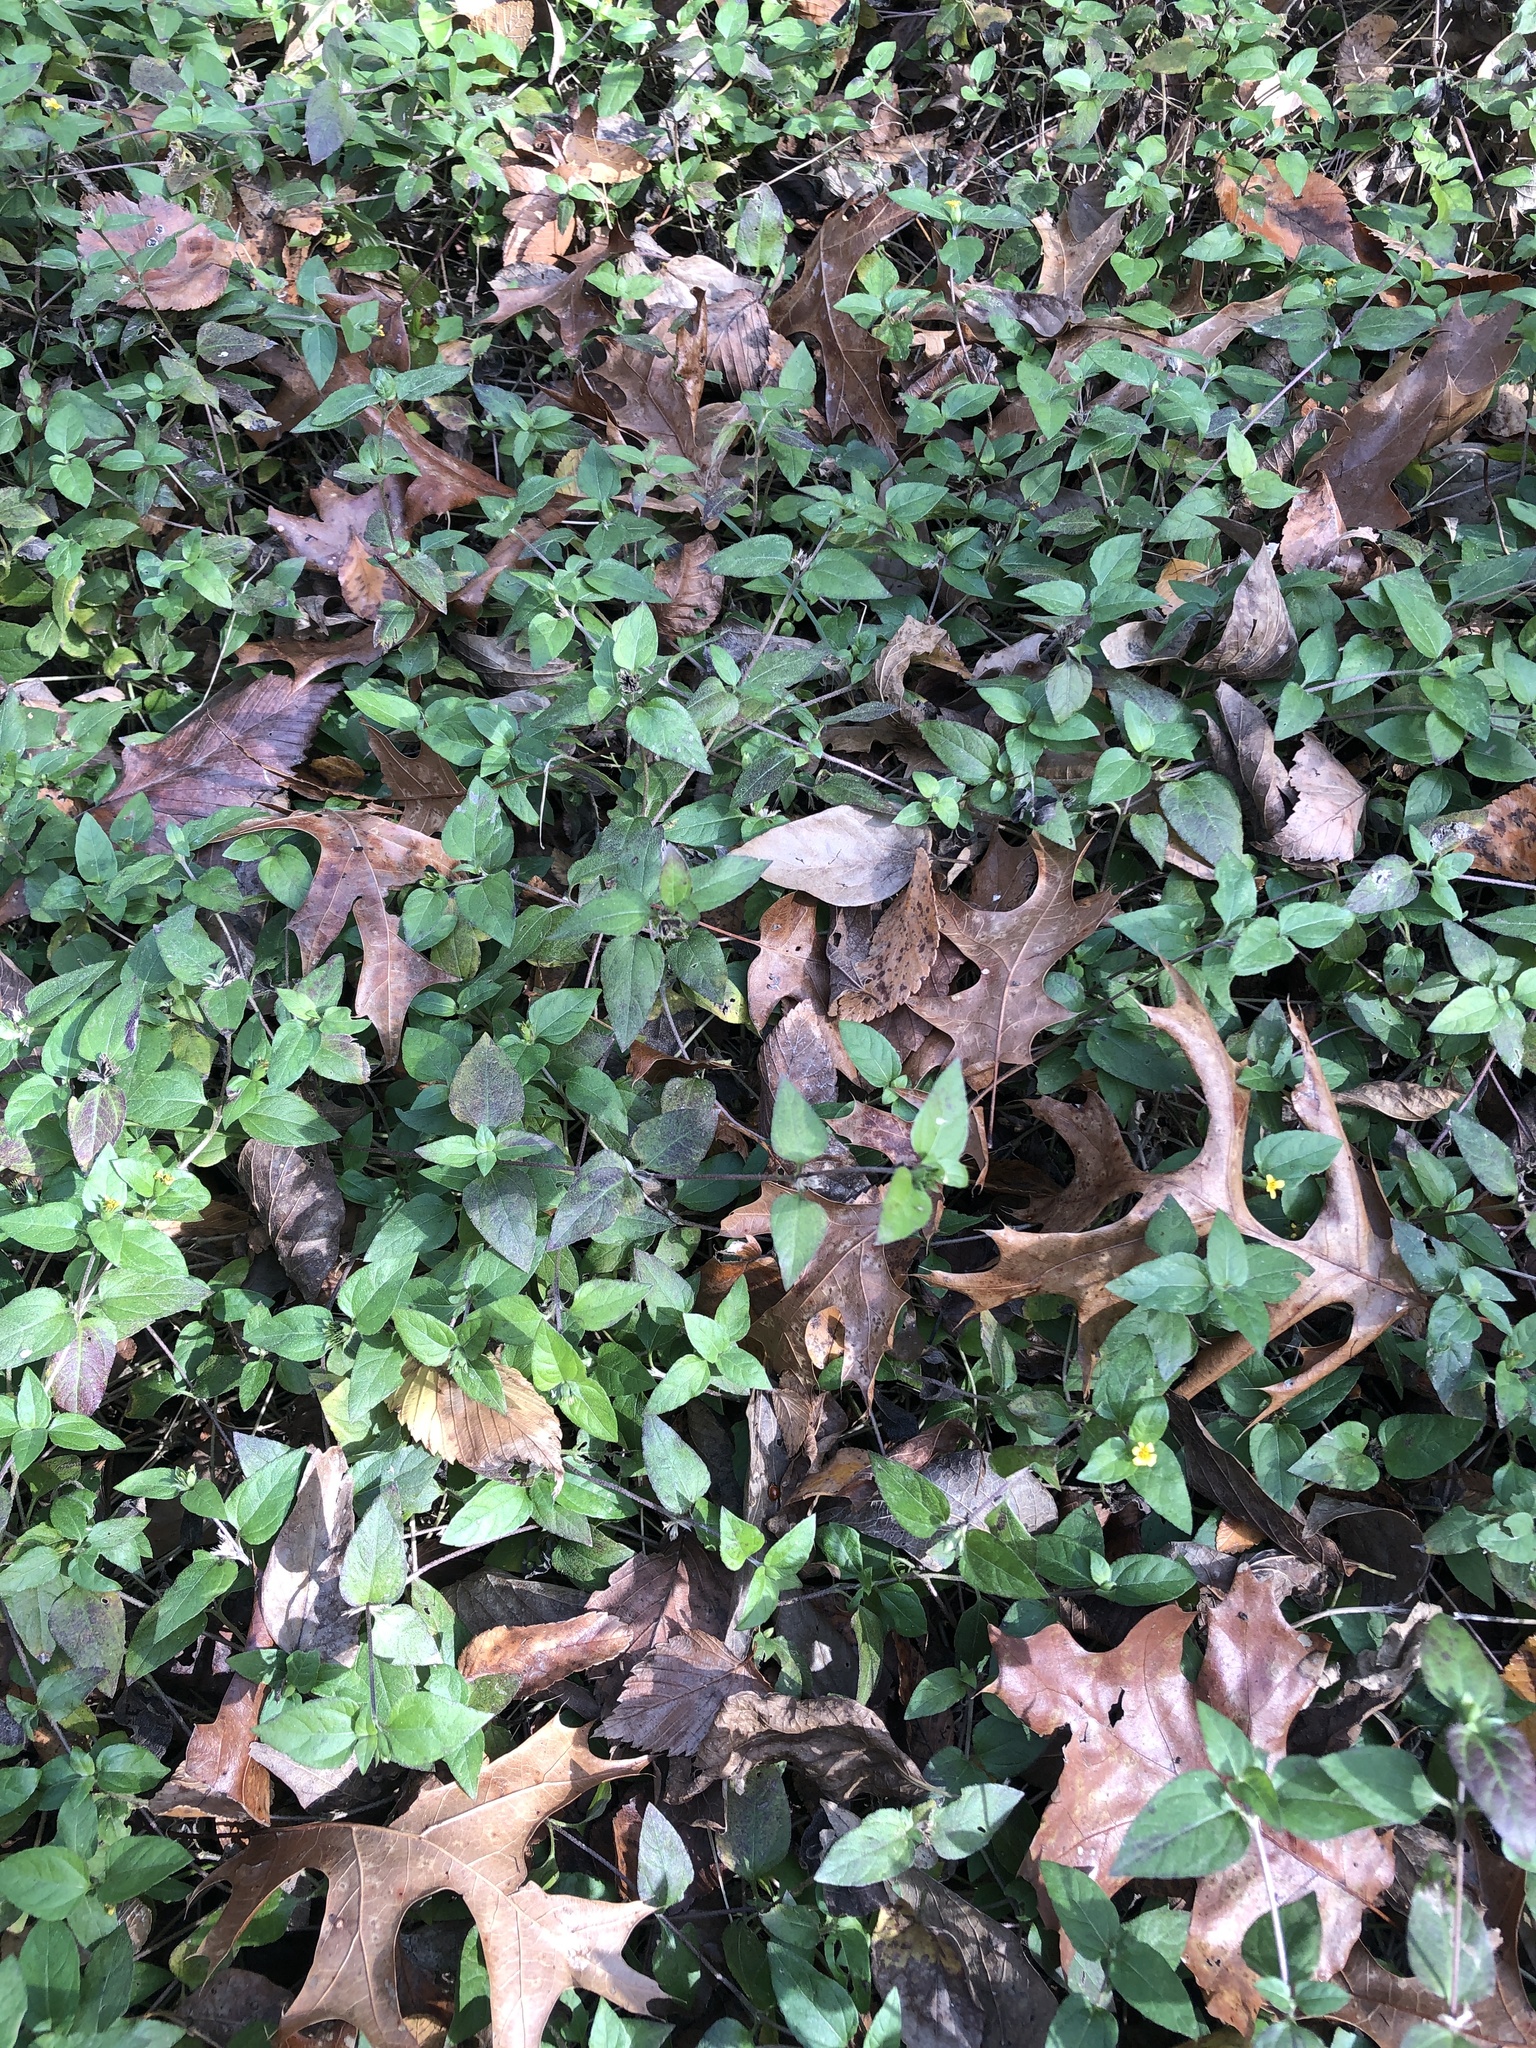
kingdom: Plantae
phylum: Tracheophyta
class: Magnoliopsida
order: Asterales
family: Asteraceae
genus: Calyptocarpus
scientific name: Calyptocarpus vialis
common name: Straggler daisy
